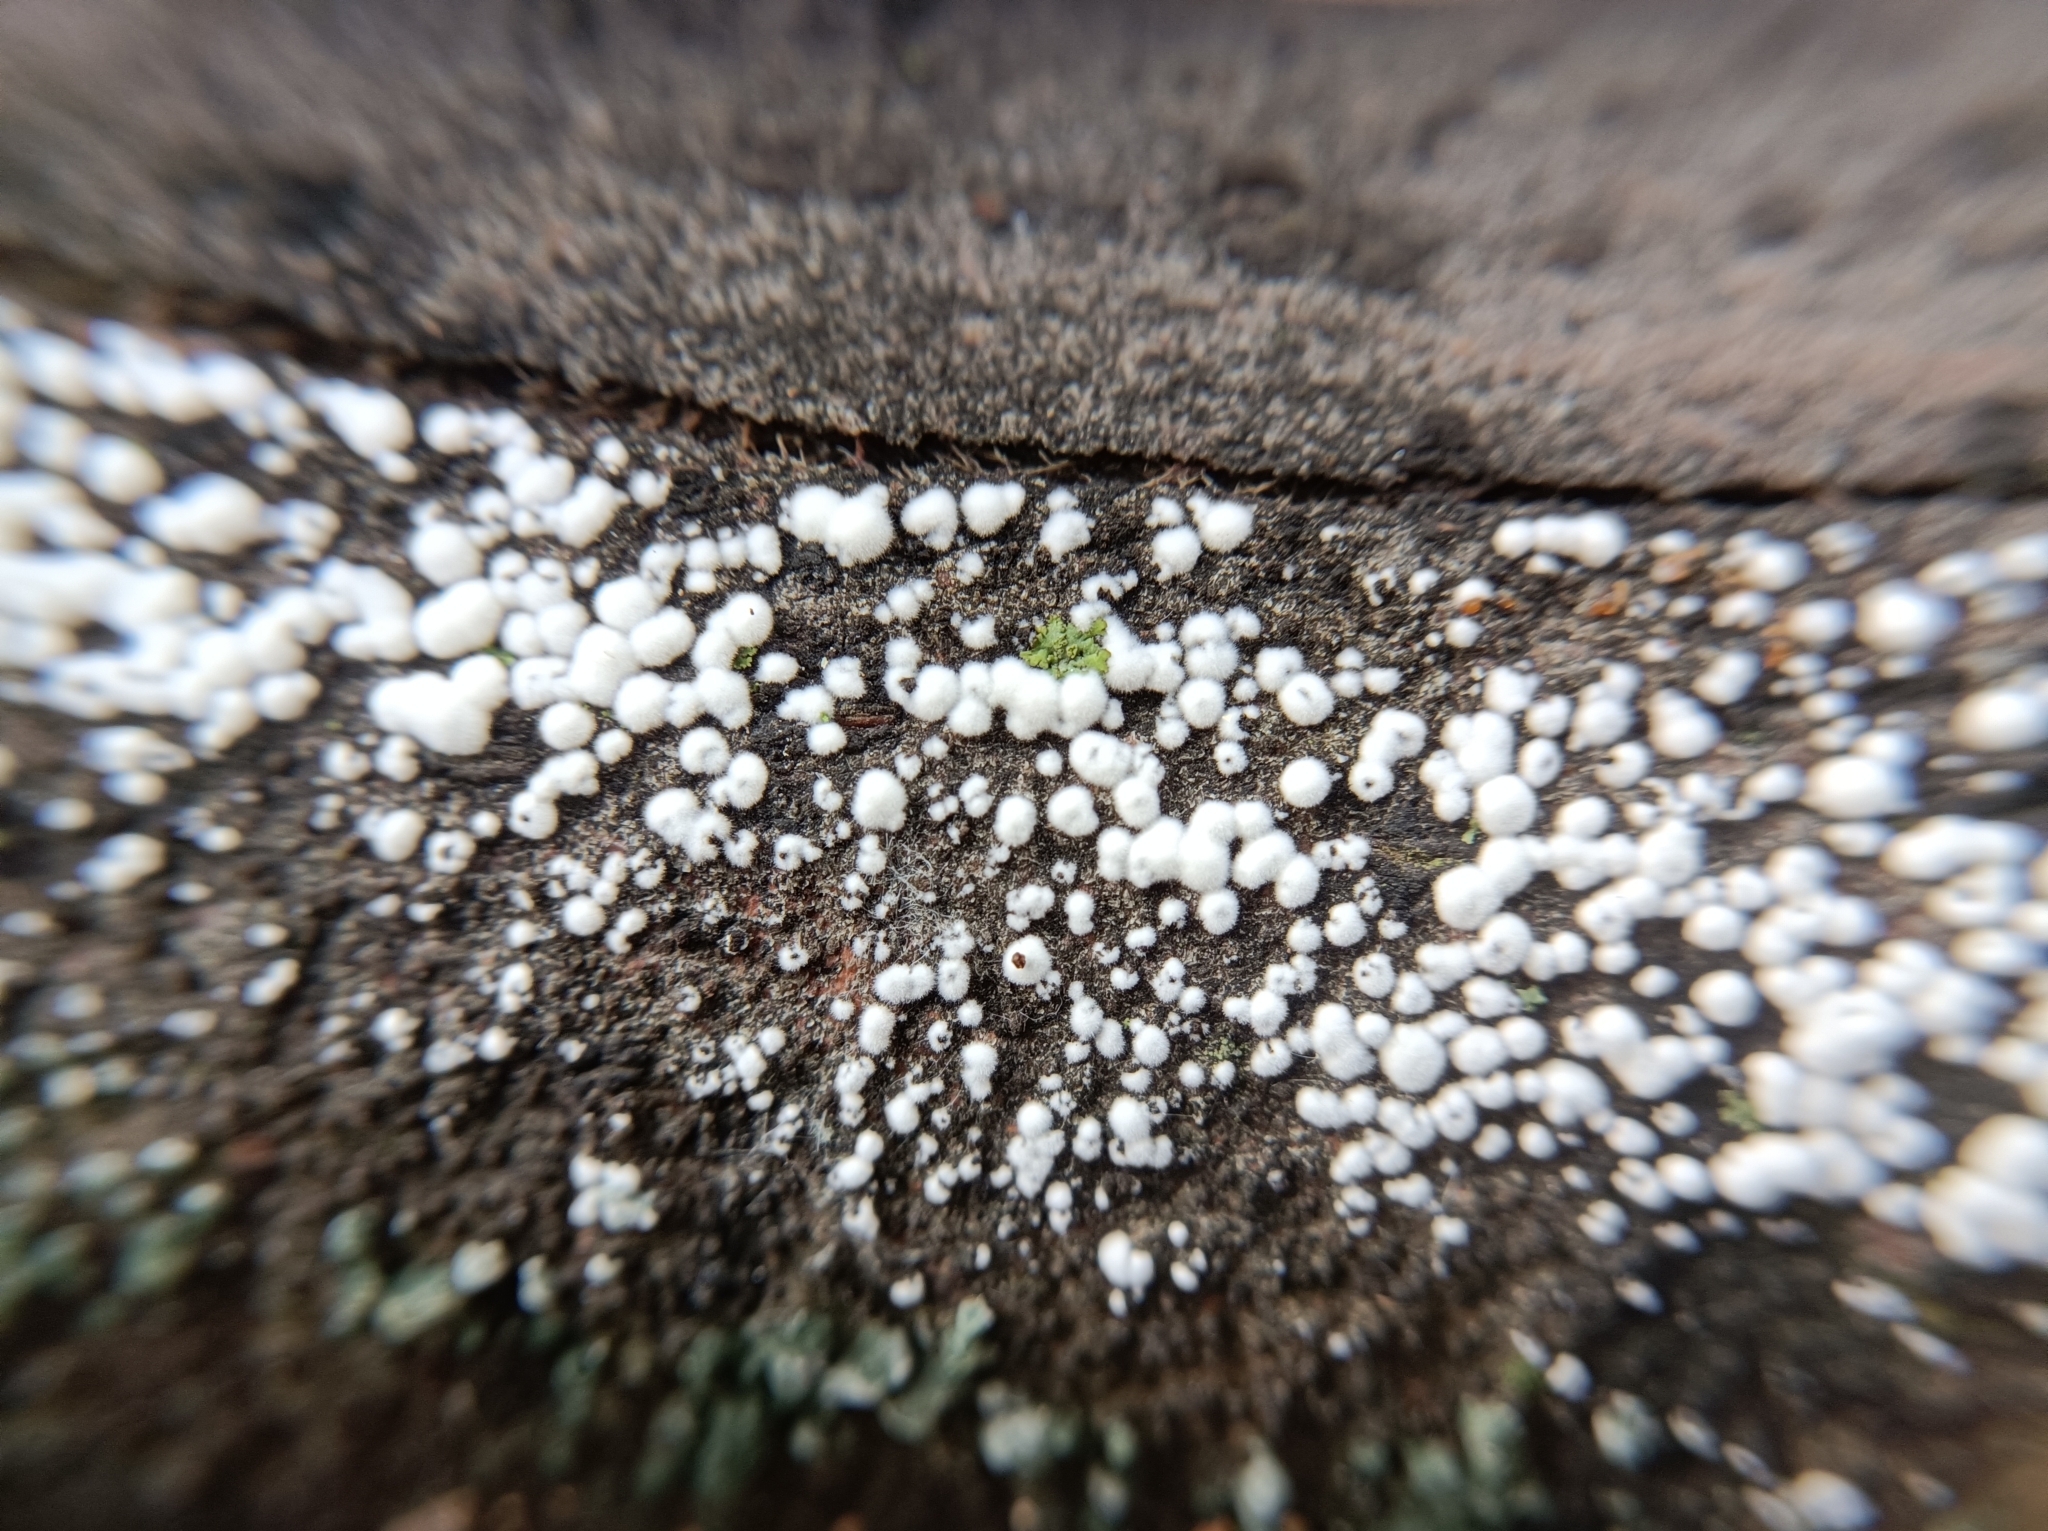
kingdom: Protozoa
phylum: Mycetozoa
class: Myxomycetes
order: Physarales
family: Physaraceae
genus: Physarum
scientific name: Physarum cinereum
